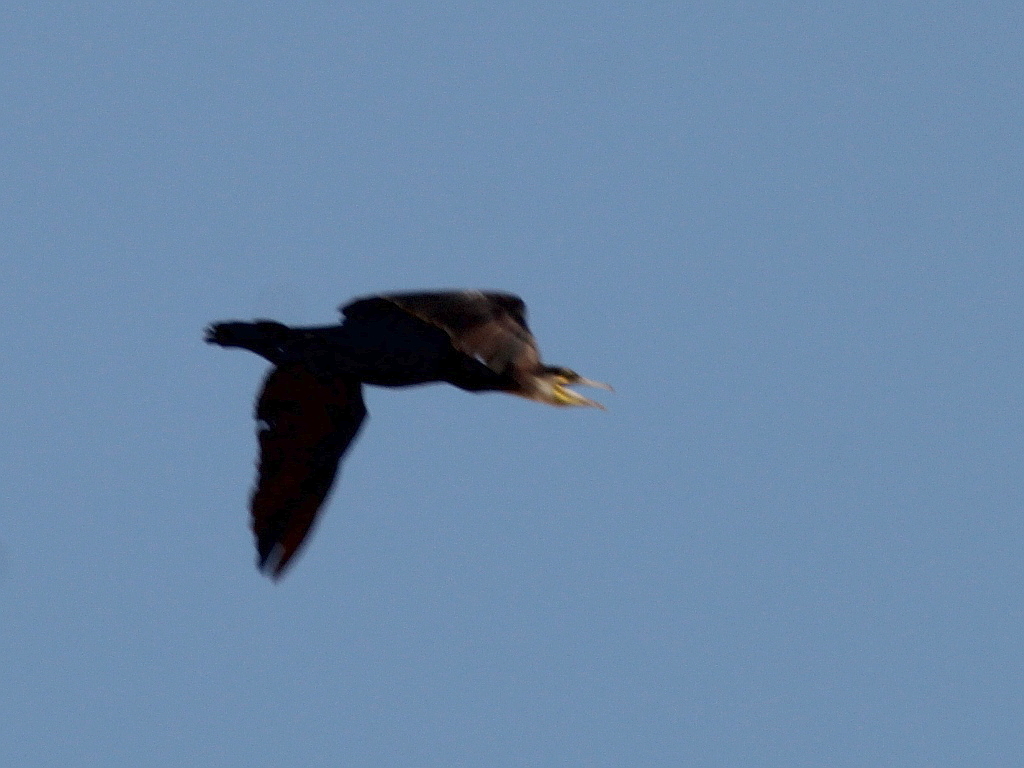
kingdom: Animalia
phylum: Chordata
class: Aves
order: Suliformes
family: Phalacrocoracidae
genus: Phalacrocorax
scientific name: Phalacrocorax carbo
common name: Great cormorant
